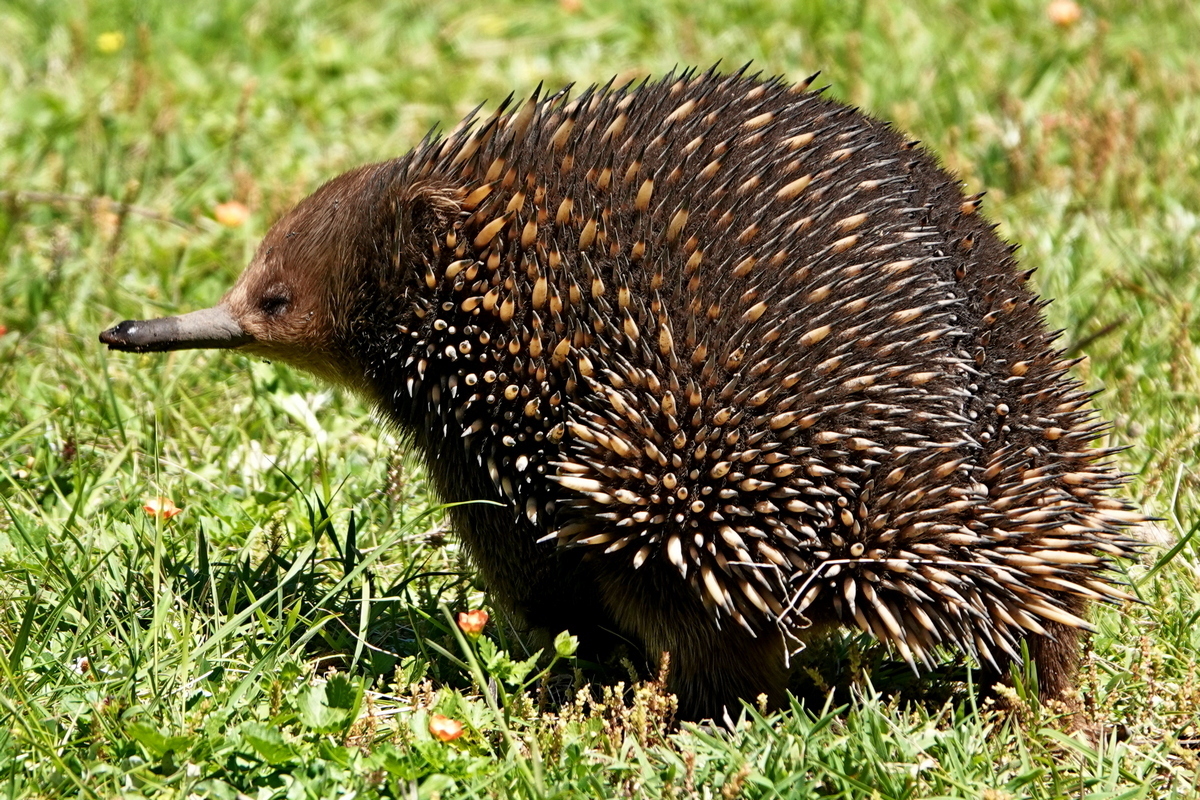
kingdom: Animalia
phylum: Chordata
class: Mammalia
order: Monotremata
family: Tachyglossidae
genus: Tachyglossus
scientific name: Tachyglossus aculeatus
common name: Short-beaked echidna
